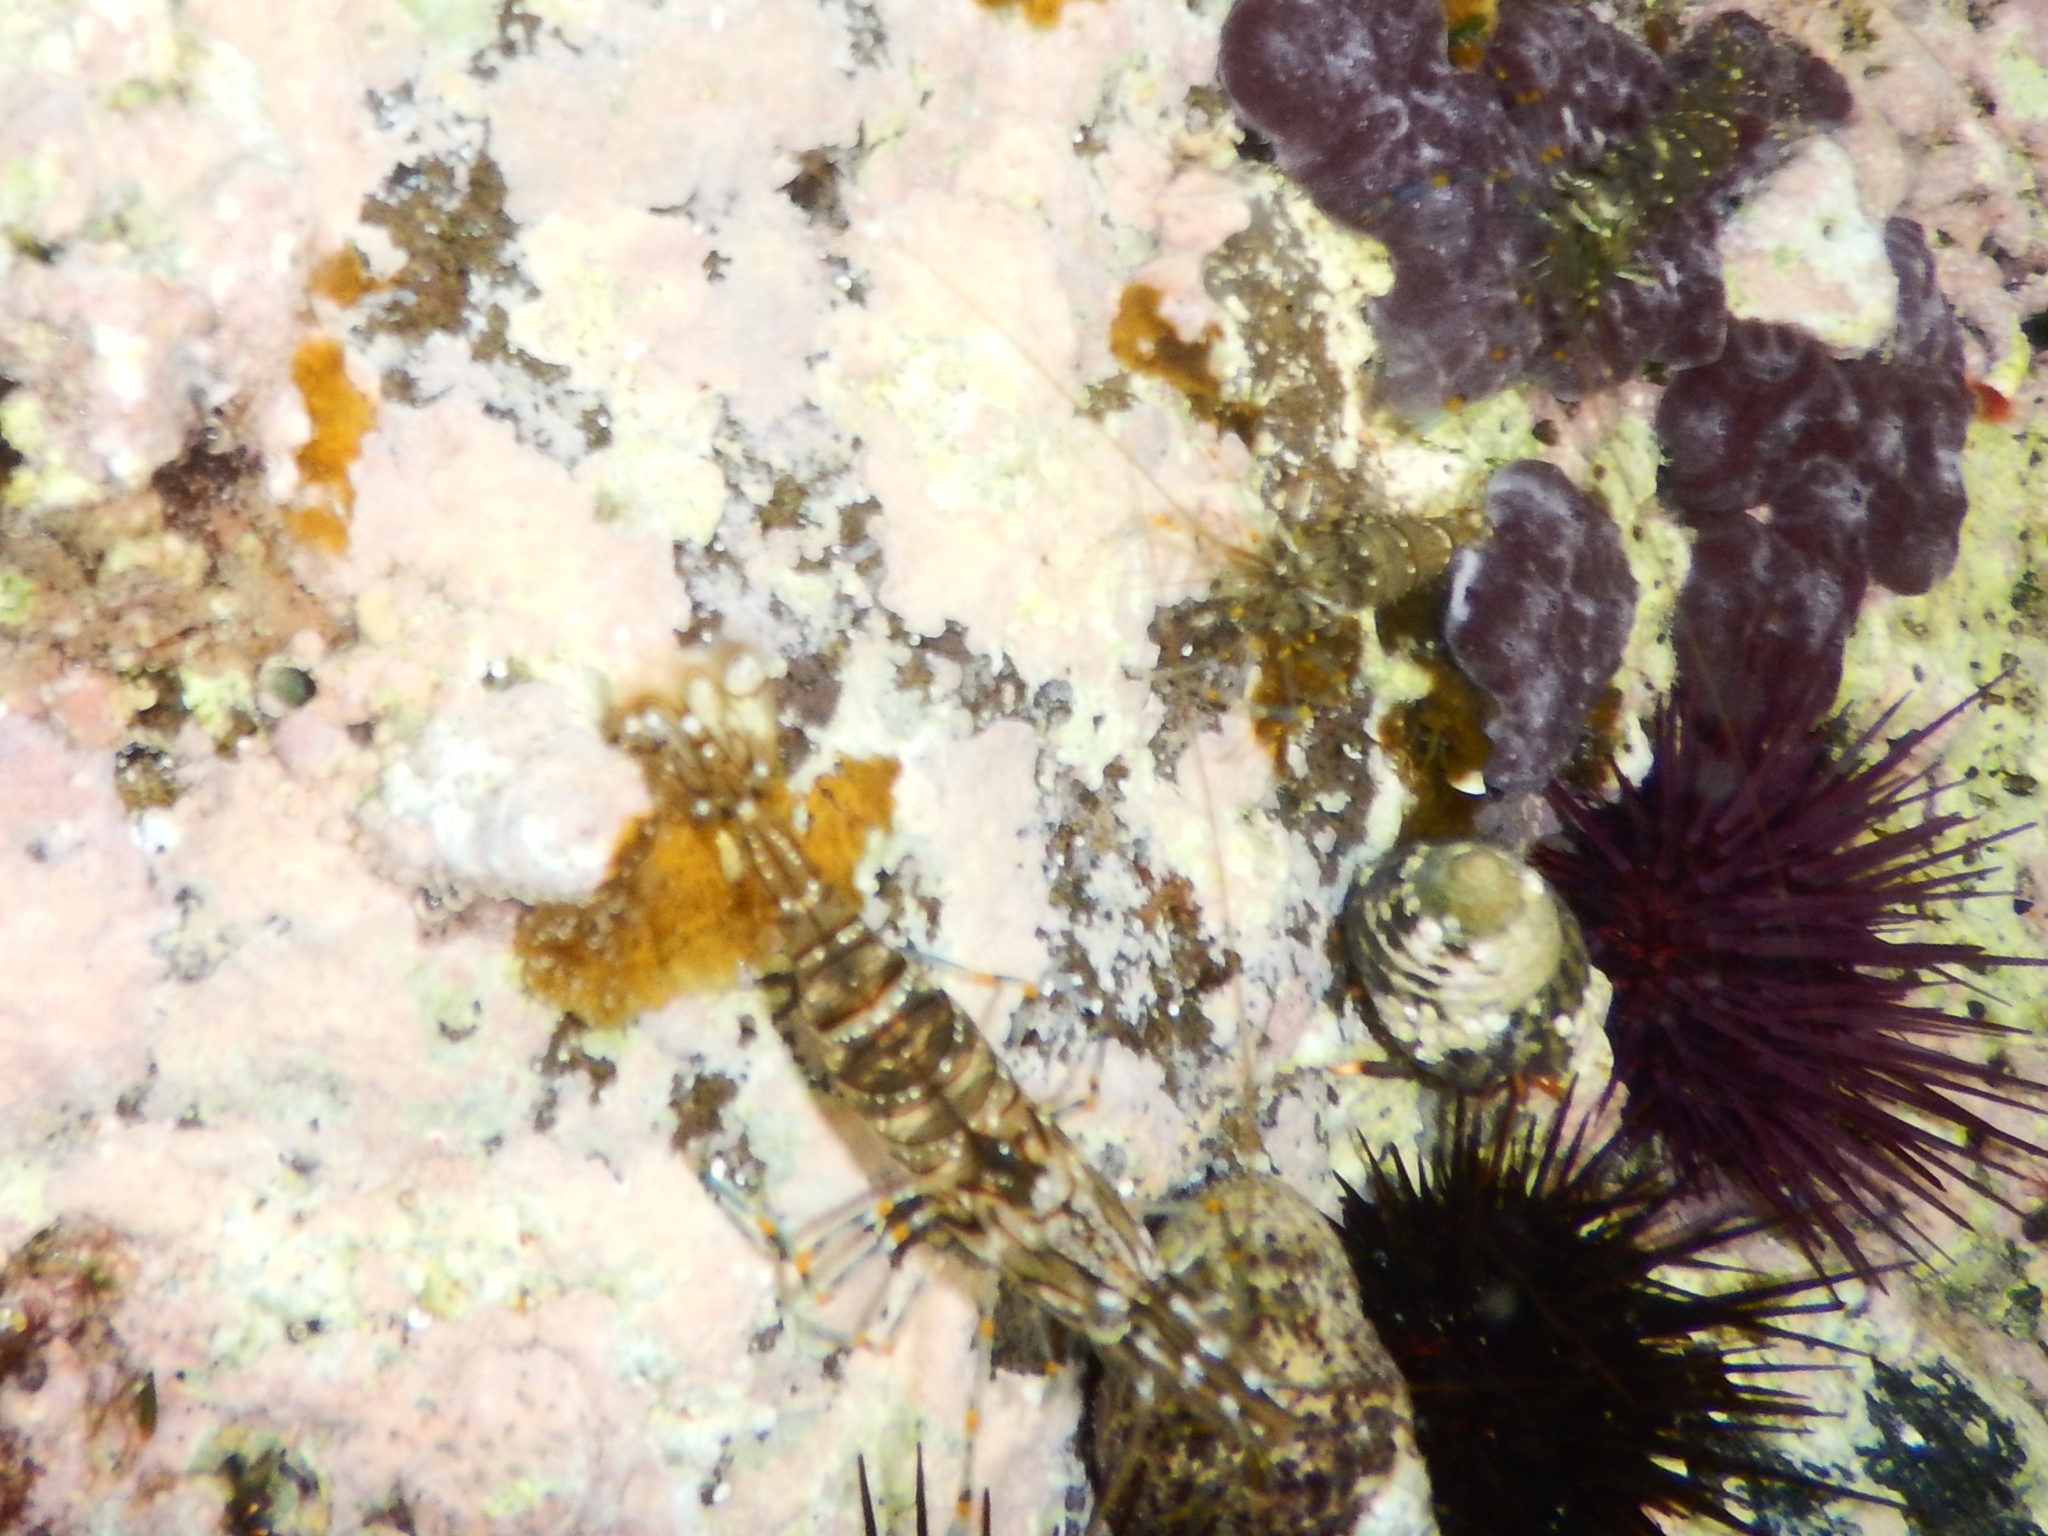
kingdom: Animalia
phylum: Arthropoda
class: Malacostraca
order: Decapoda
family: Palaemonidae
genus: Palaemon
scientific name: Palaemon elegans
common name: Grass prawm
